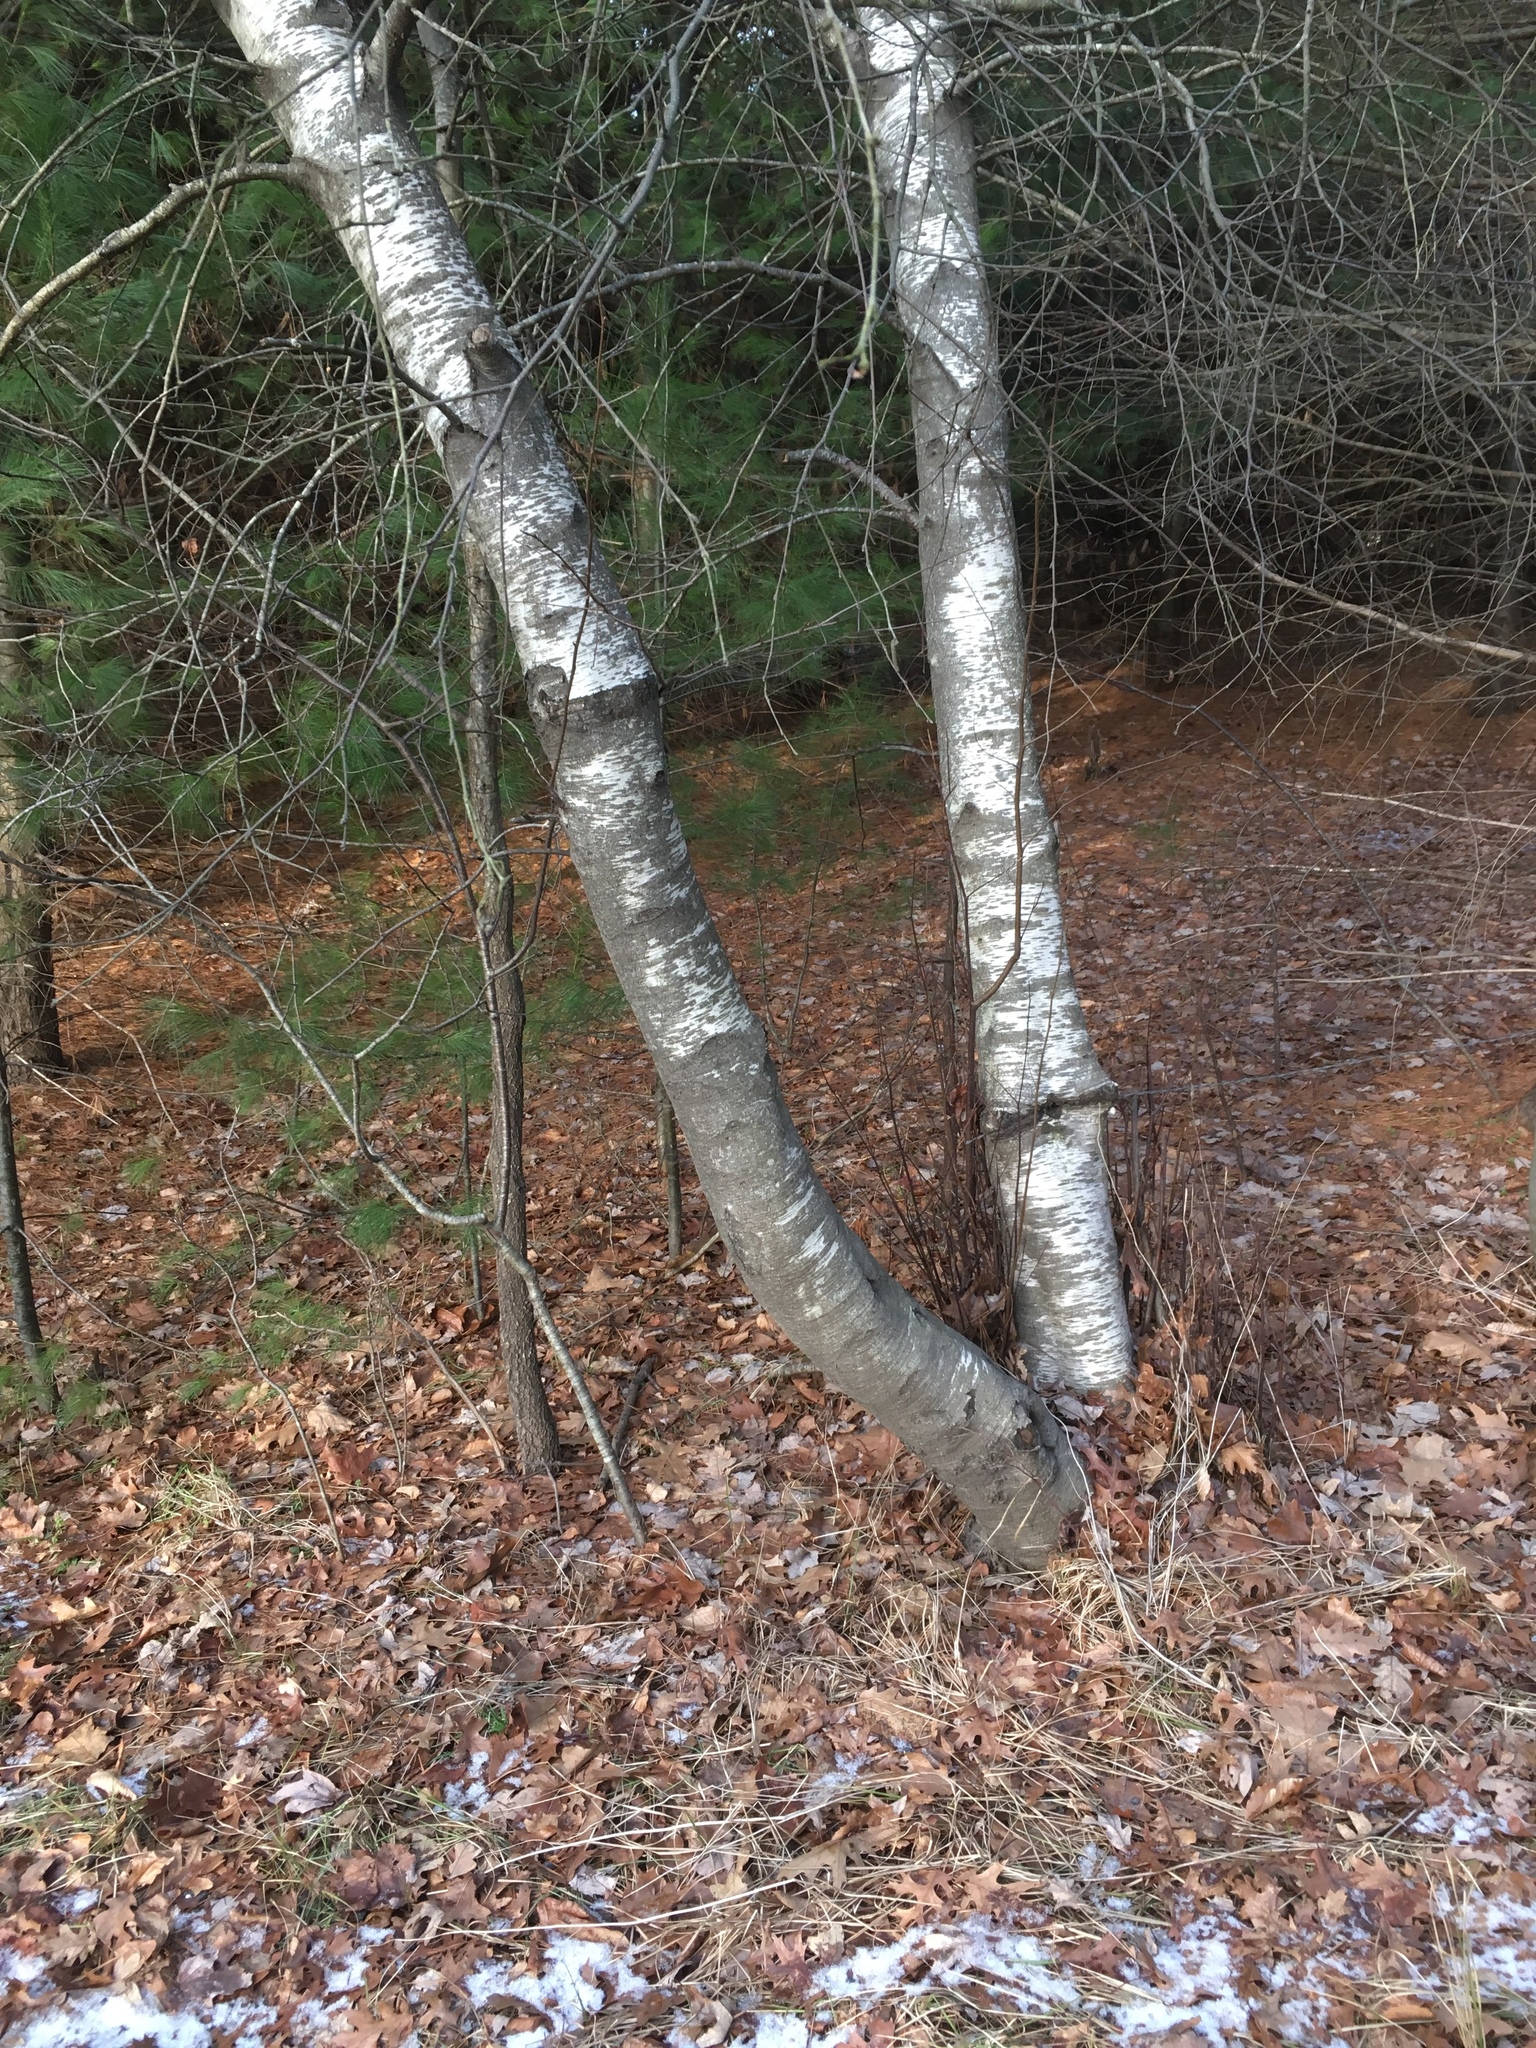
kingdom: Plantae
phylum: Tracheophyta
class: Magnoliopsida
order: Fagales
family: Betulaceae
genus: Betula
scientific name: Betula populifolia
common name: Fire birch
